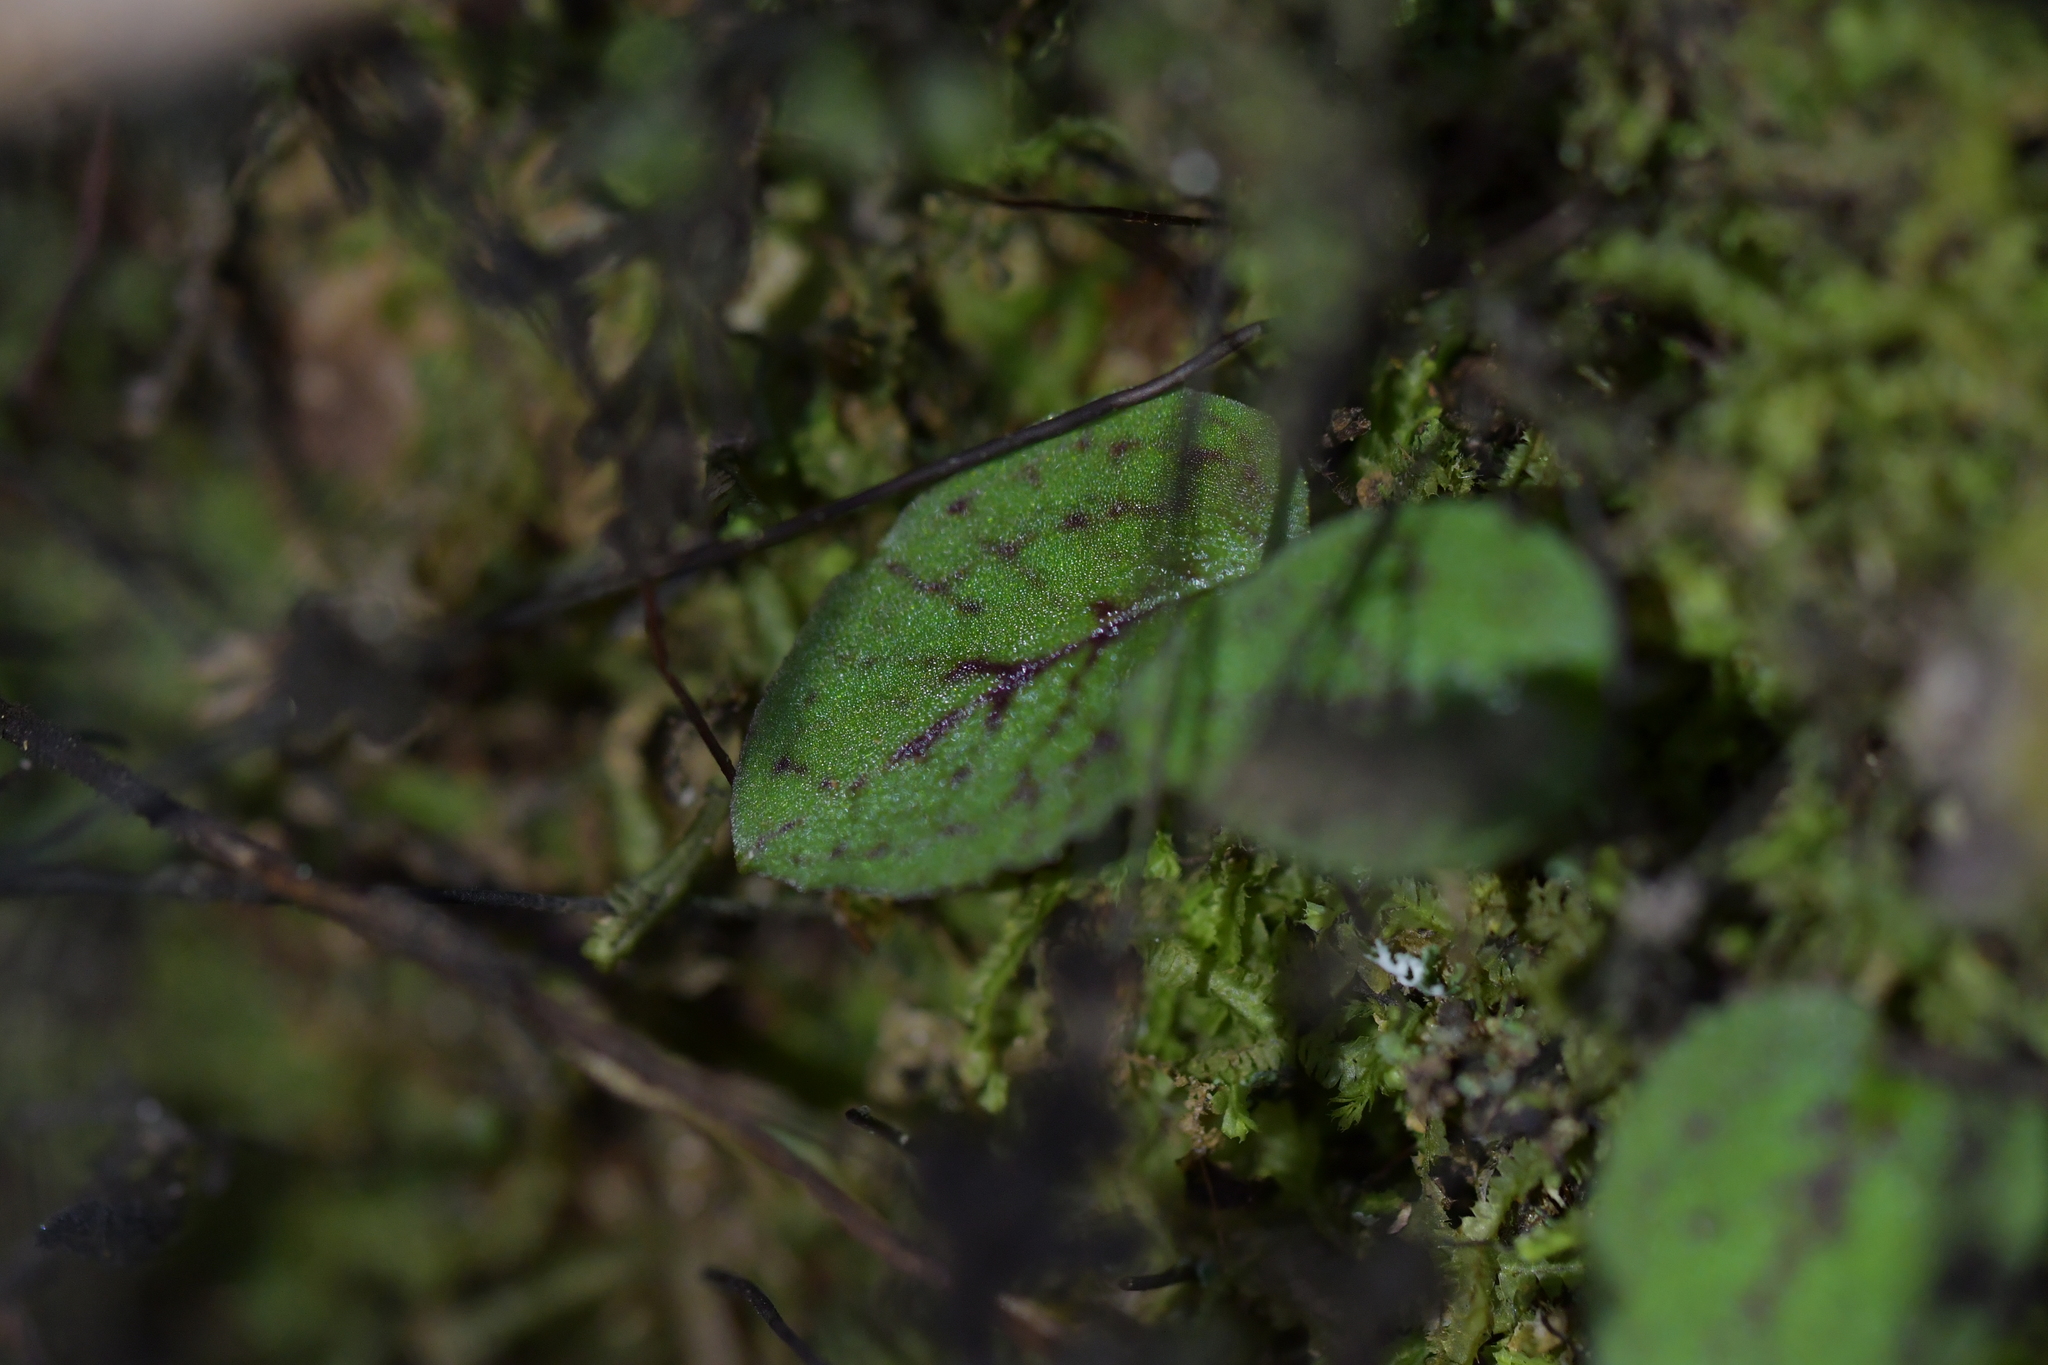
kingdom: Plantae
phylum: Tracheophyta
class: Liliopsida
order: Asparagales
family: Orchidaceae
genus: Corybas
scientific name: Corybas oblongus
